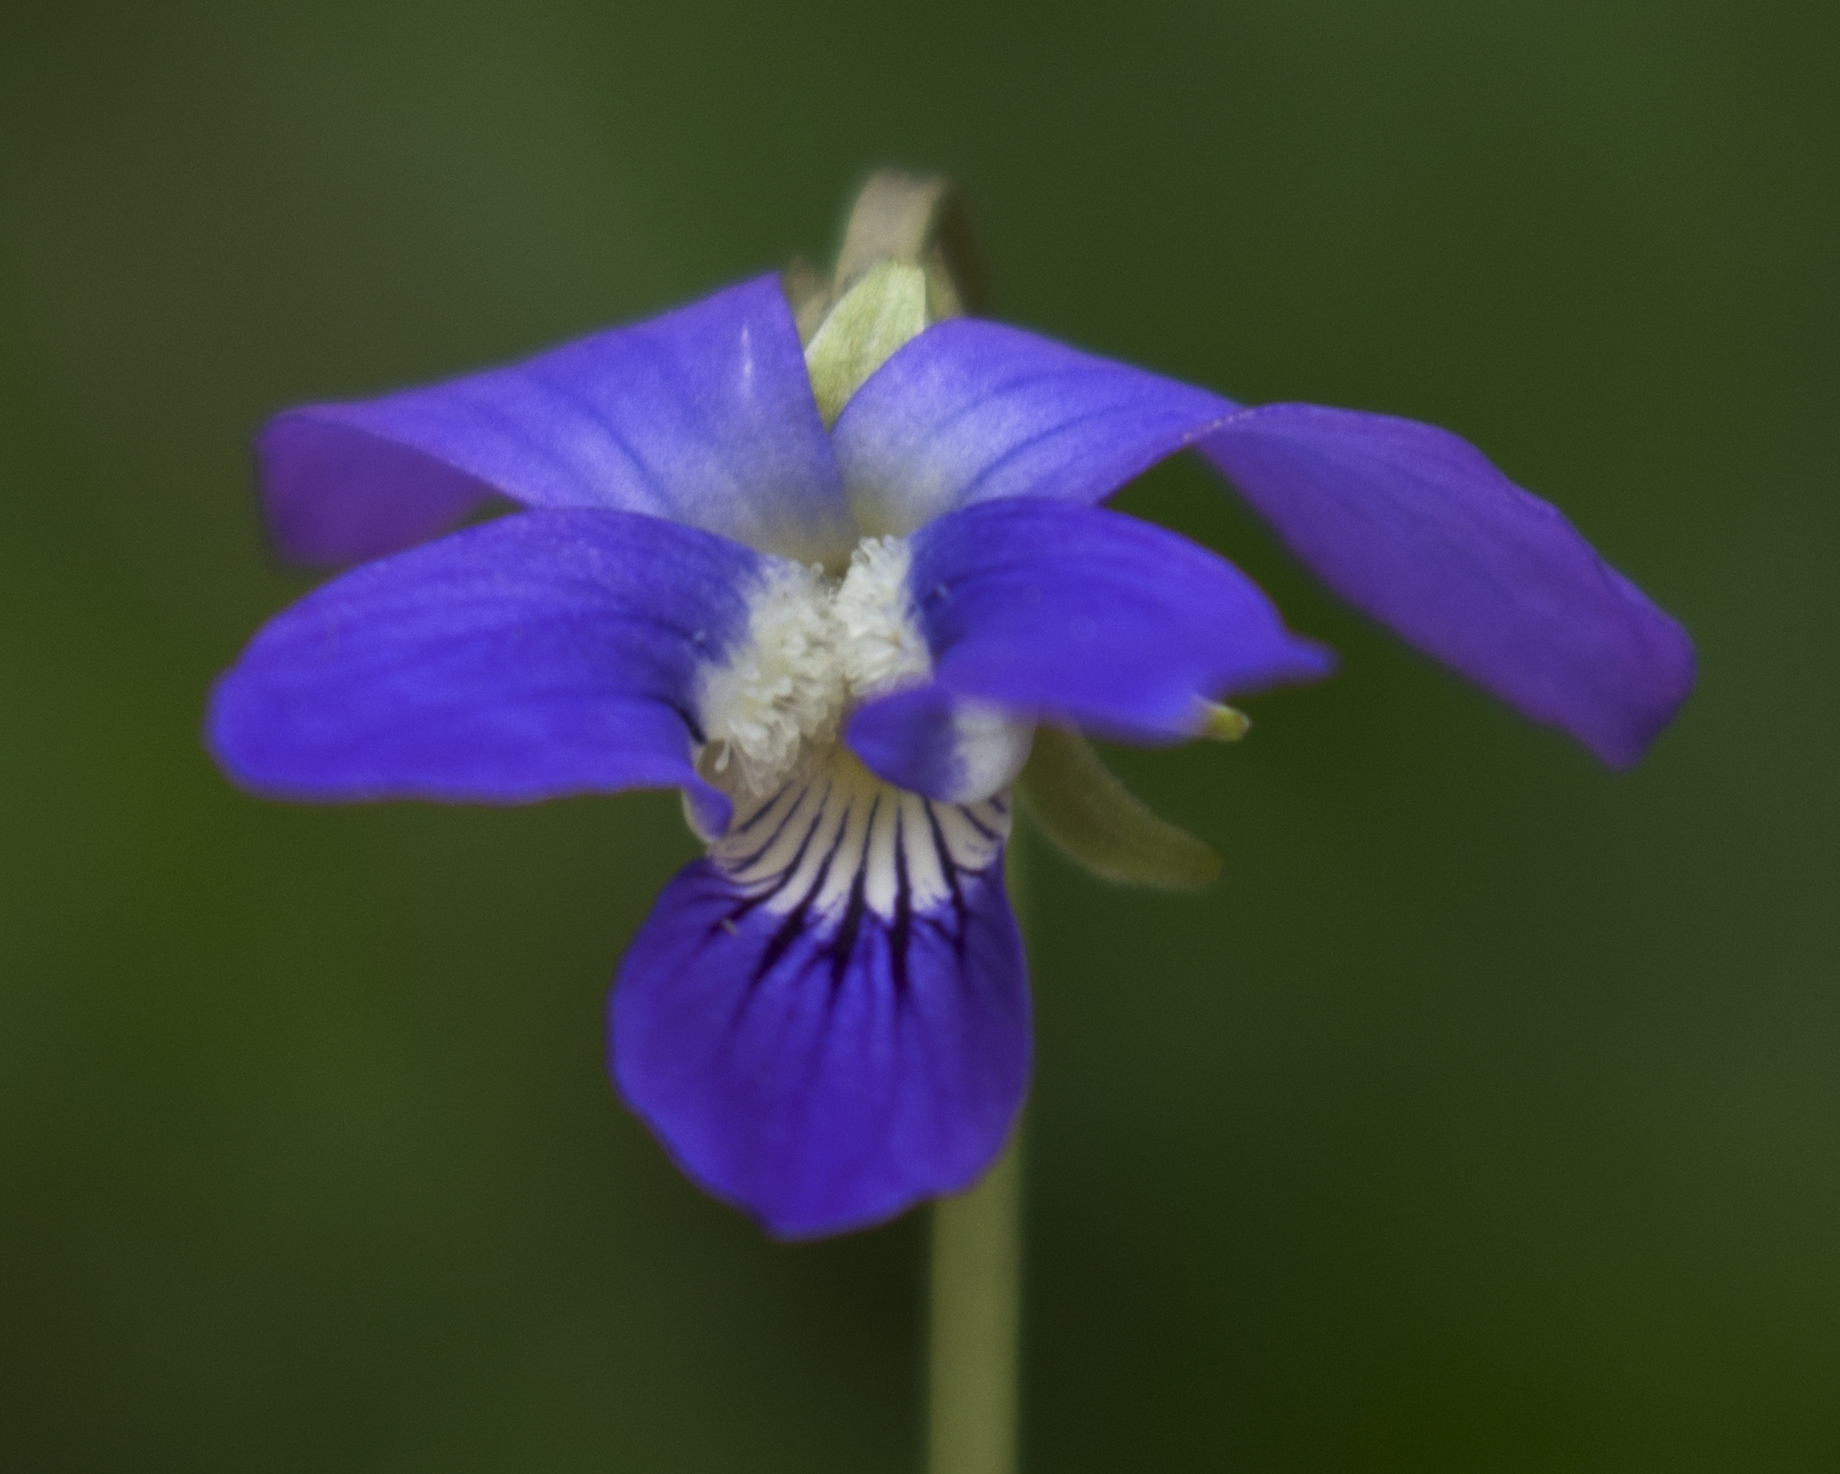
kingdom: Plantae
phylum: Tracheophyta
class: Magnoliopsida
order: Malpighiales
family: Violaceae
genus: Viola
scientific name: Viola cucullata
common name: Marsh blue violet
